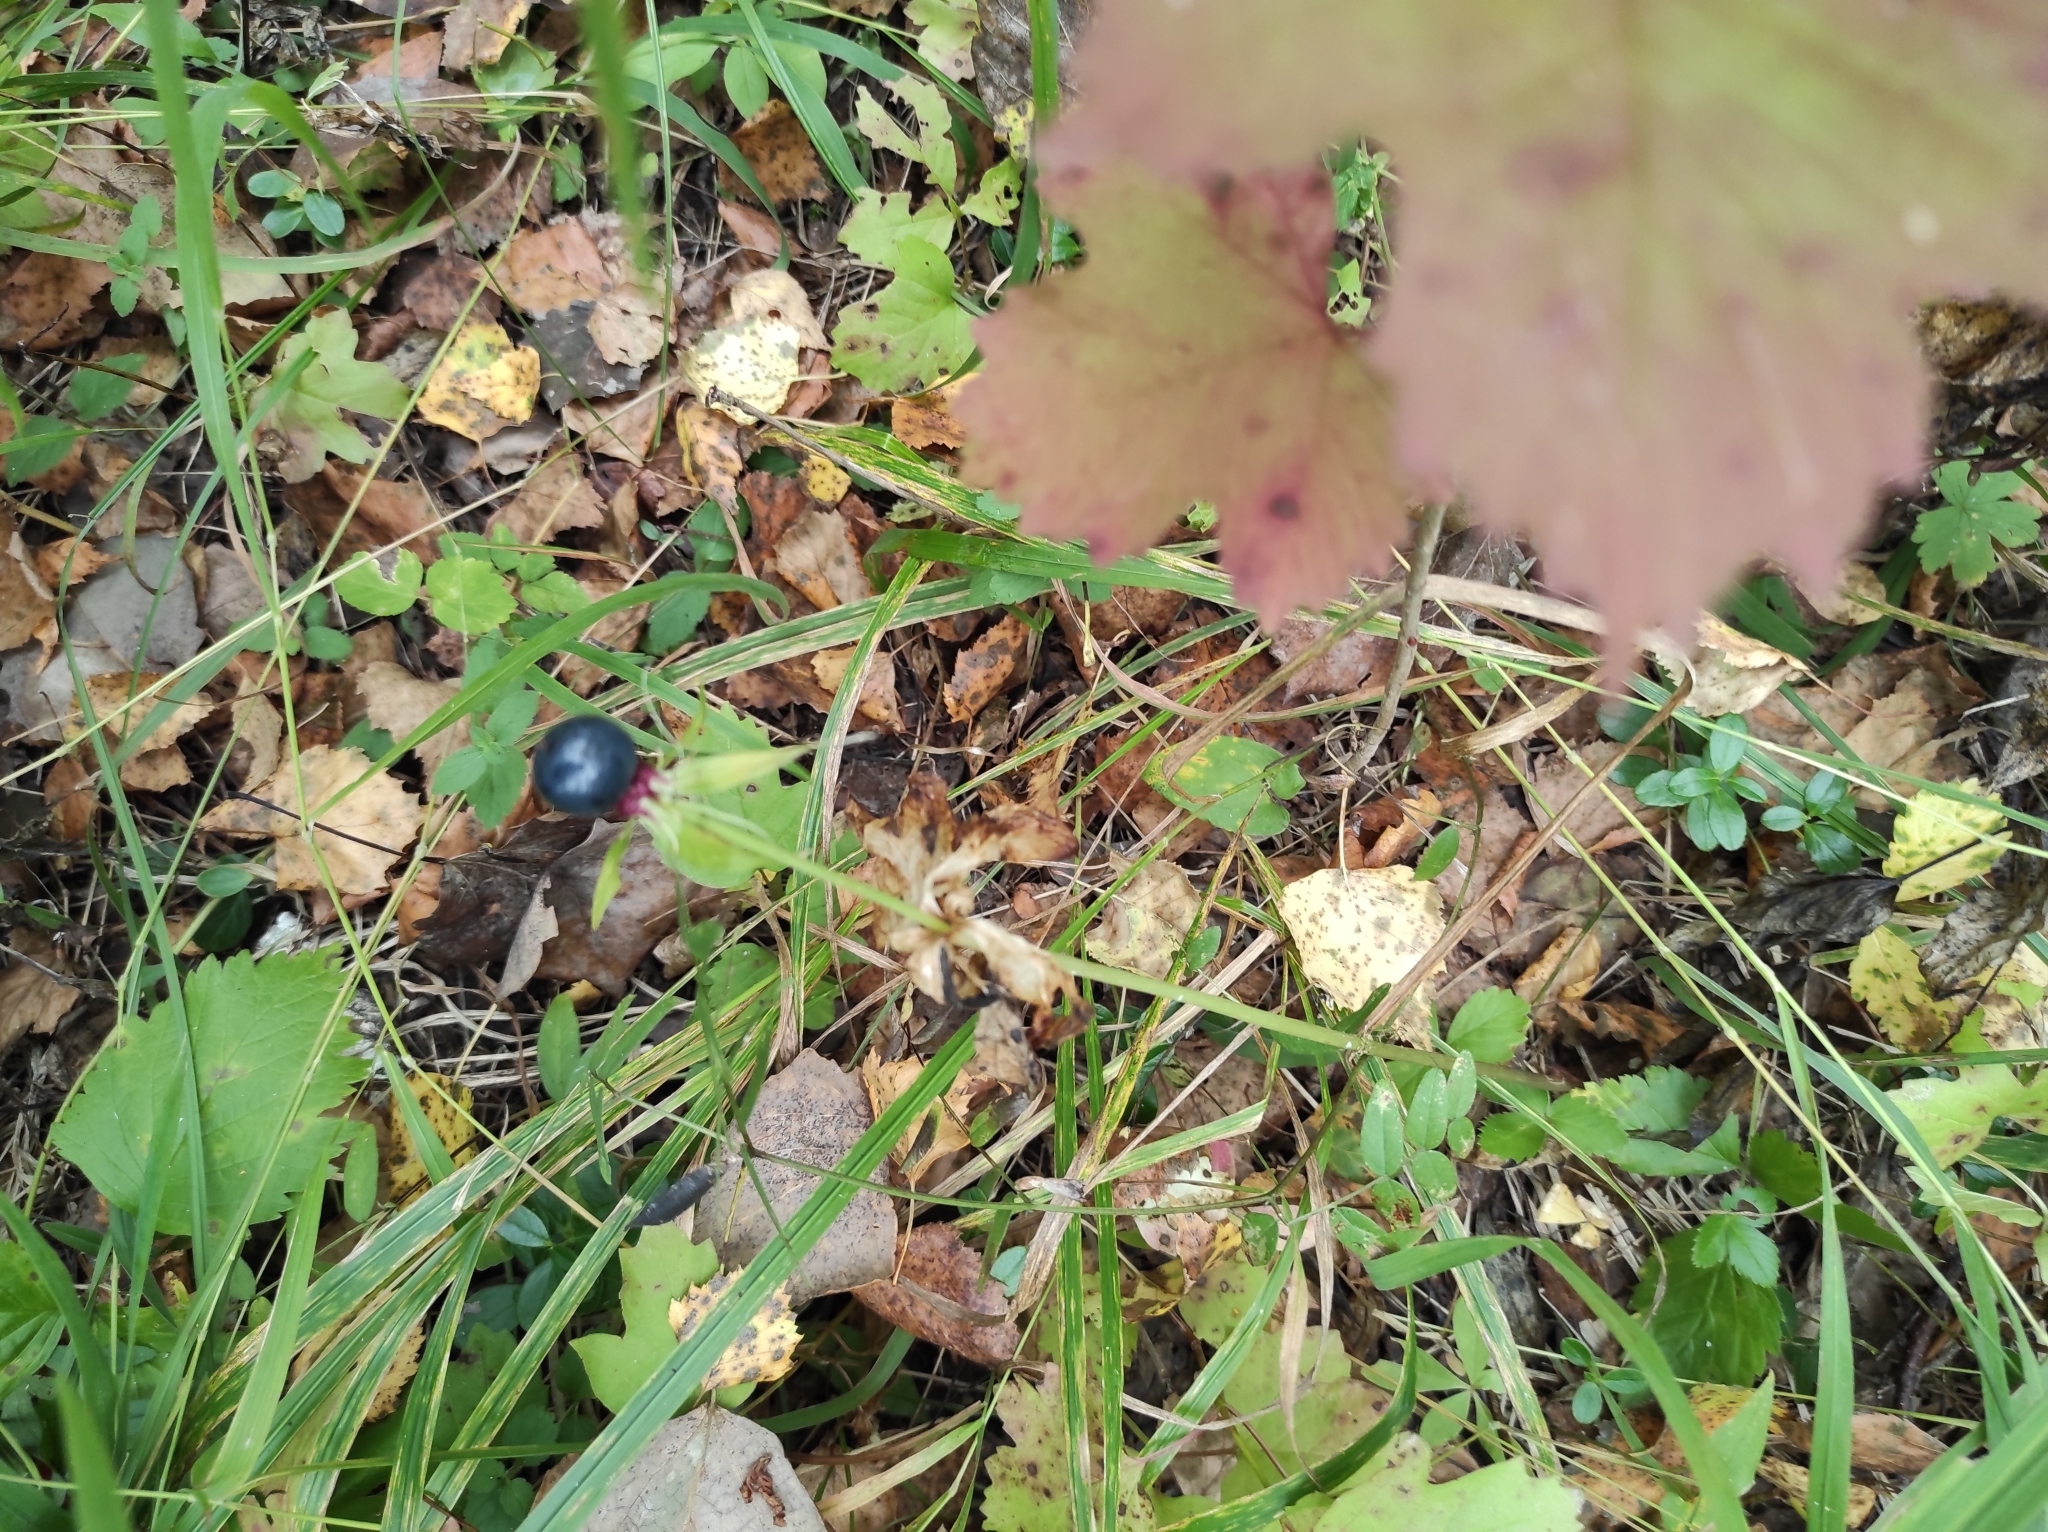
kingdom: Plantae
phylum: Tracheophyta
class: Liliopsida
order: Liliales
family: Melanthiaceae
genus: Paris
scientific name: Paris quadrifolia
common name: Herb-paris
